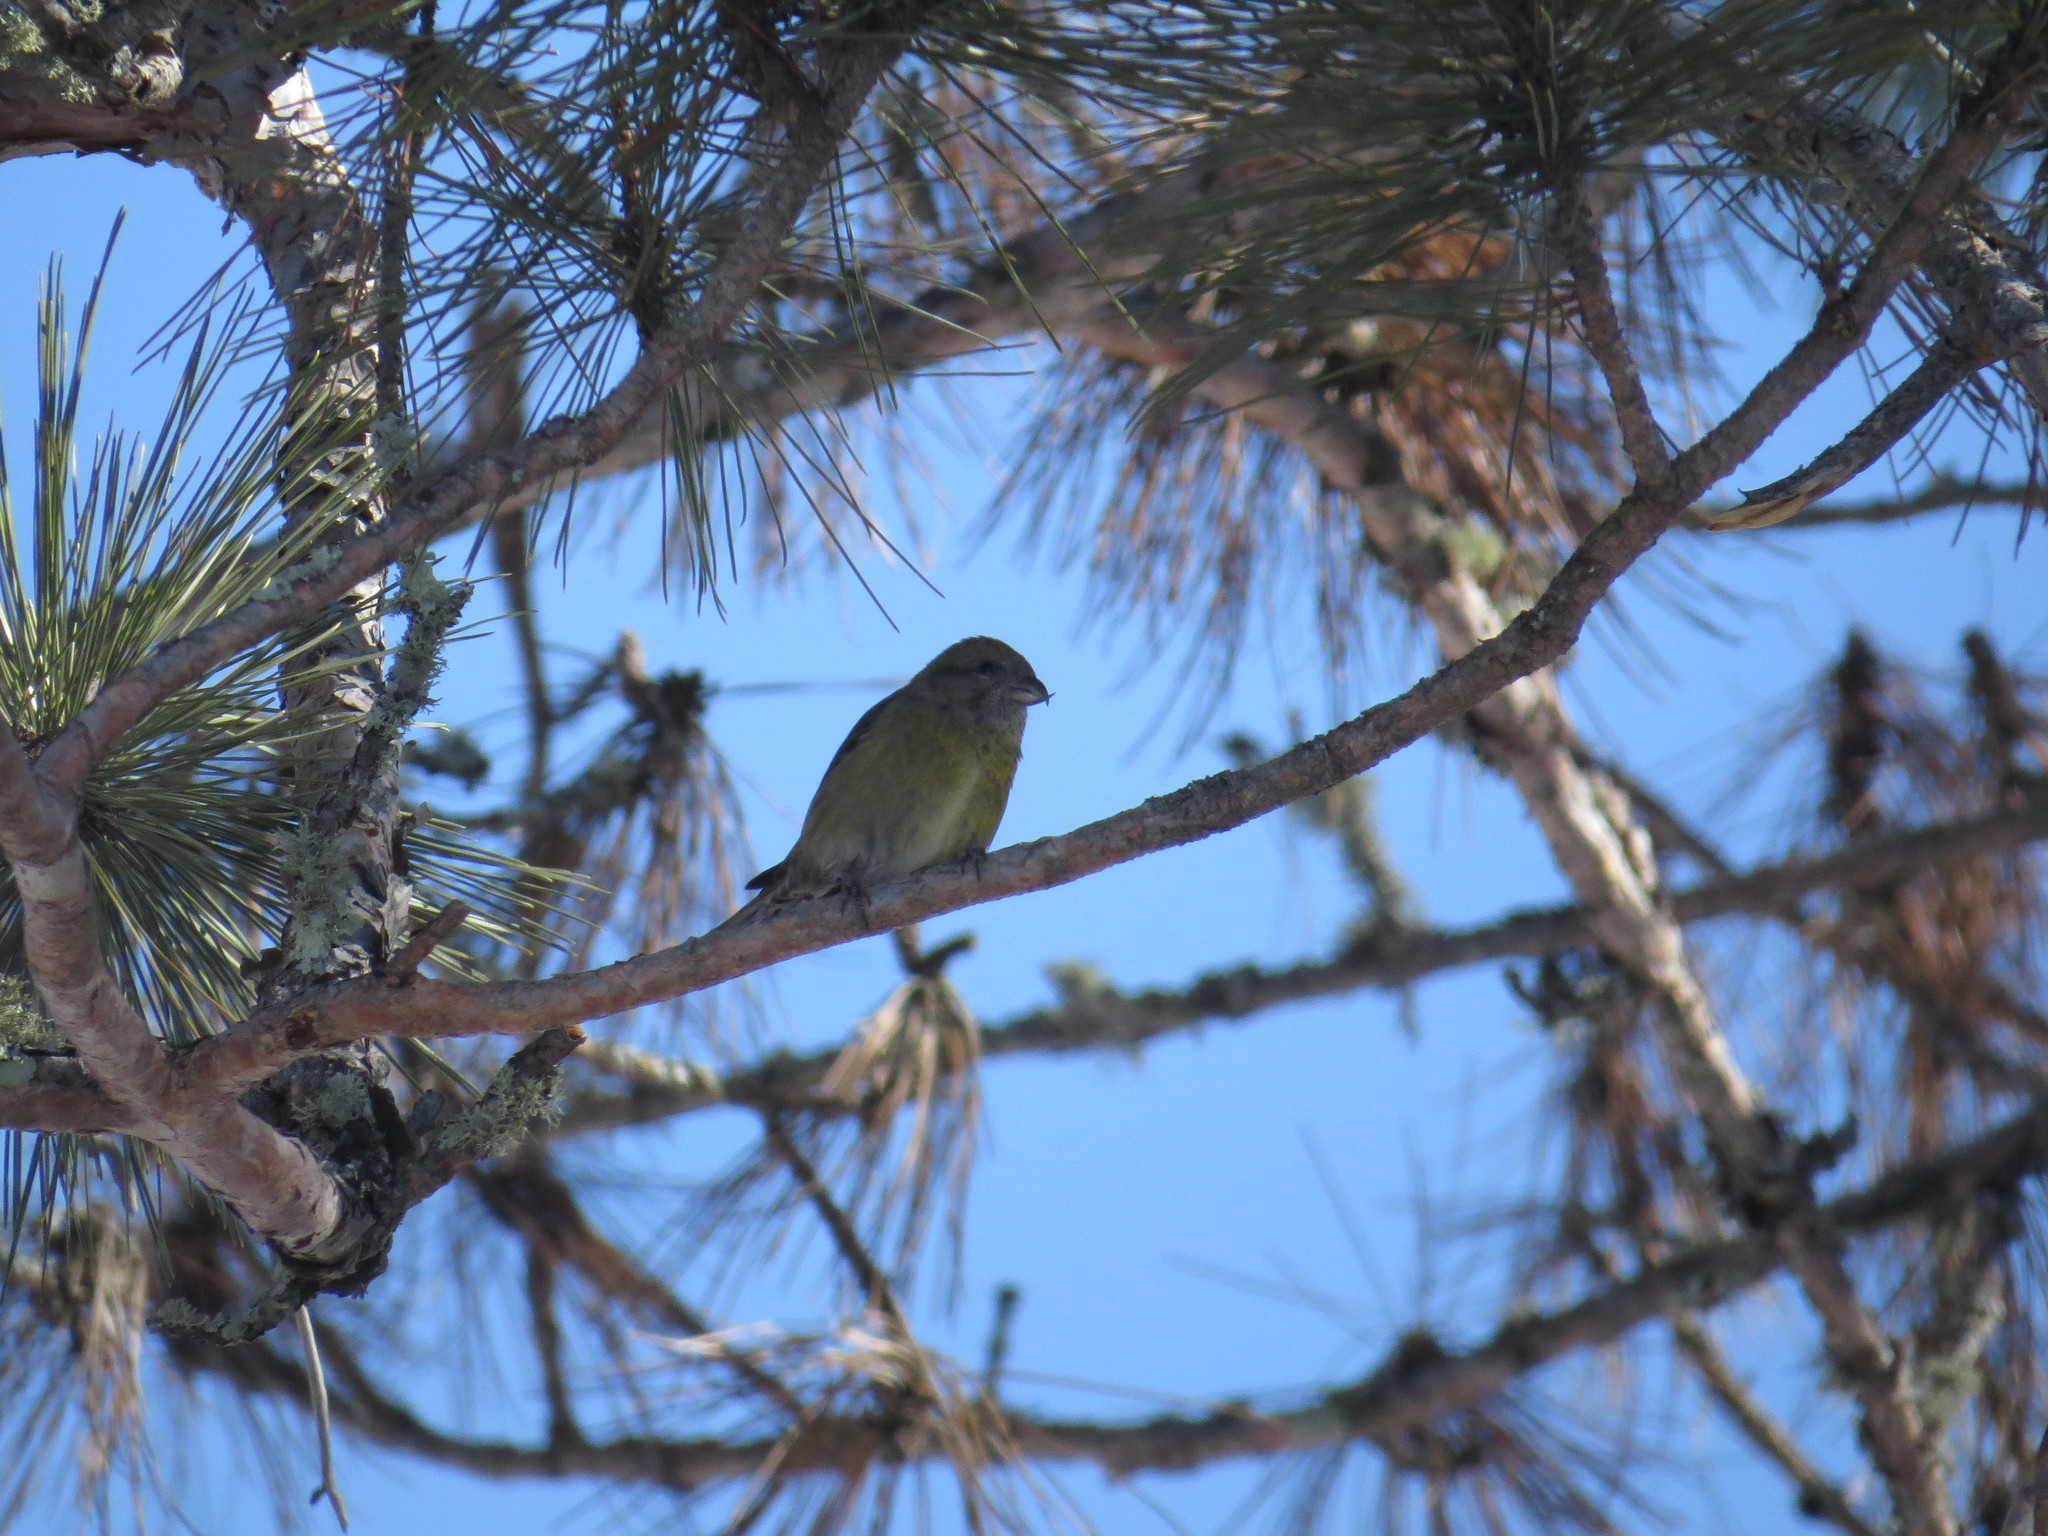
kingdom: Animalia
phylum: Chordata
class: Aves
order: Passeriformes
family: Fringillidae
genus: Loxia
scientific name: Loxia curvirostra
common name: Red crossbill
